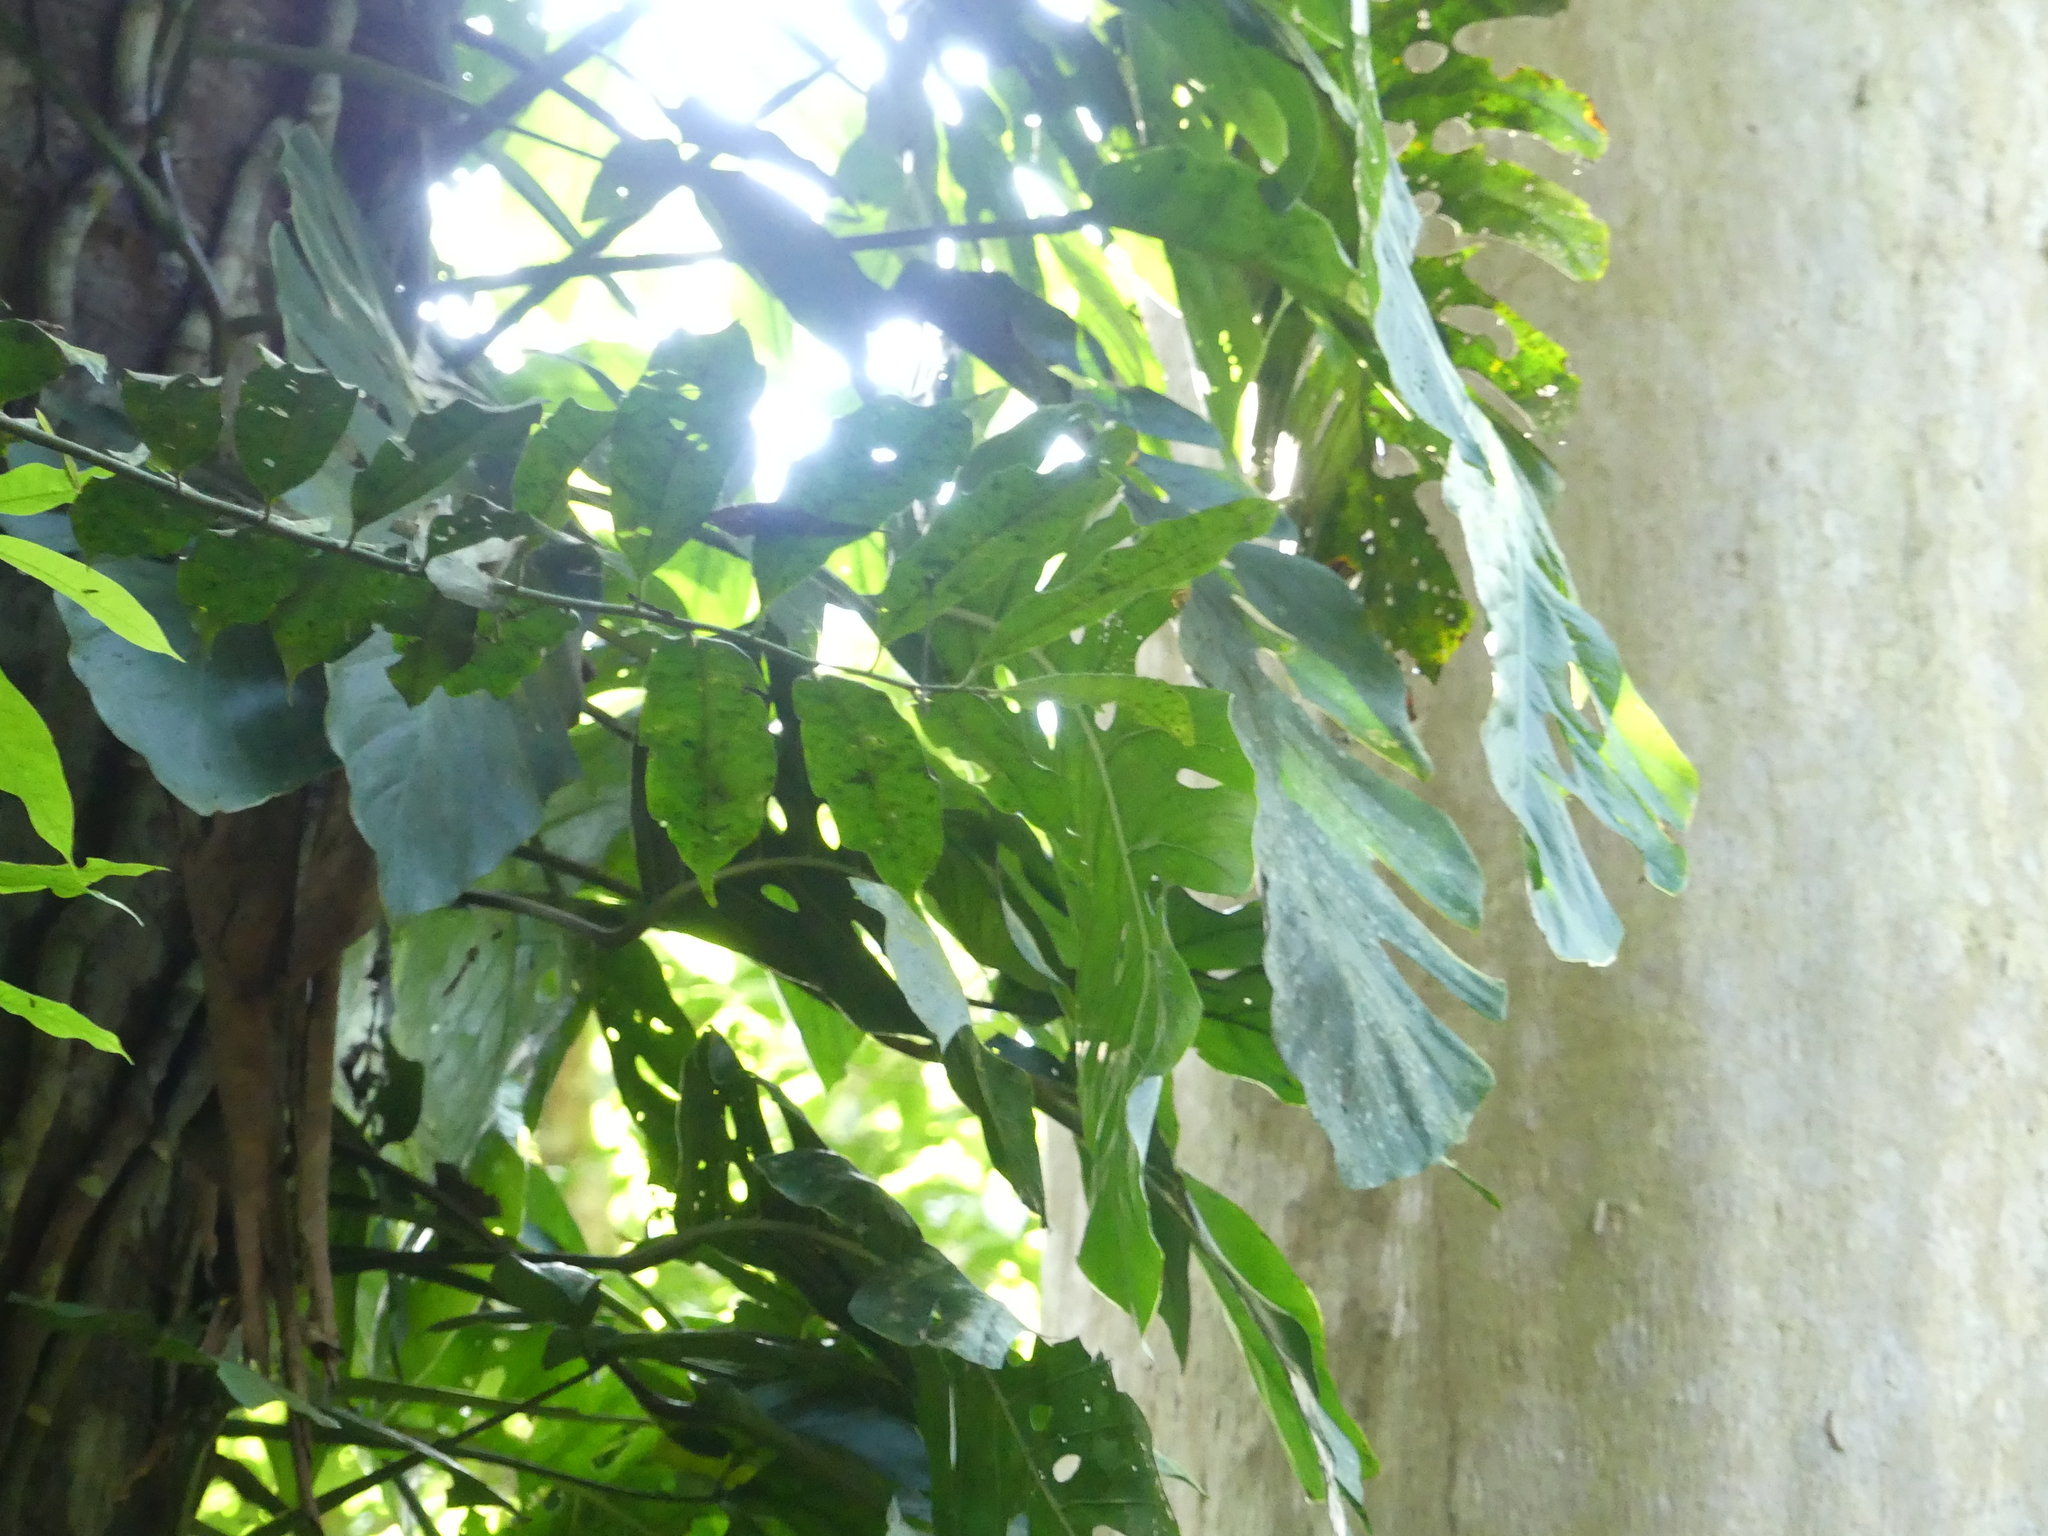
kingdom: Plantae
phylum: Tracheophyta
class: Liliopsida
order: Alismatales
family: Araceae
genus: Monstera
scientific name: Monstera dubia
